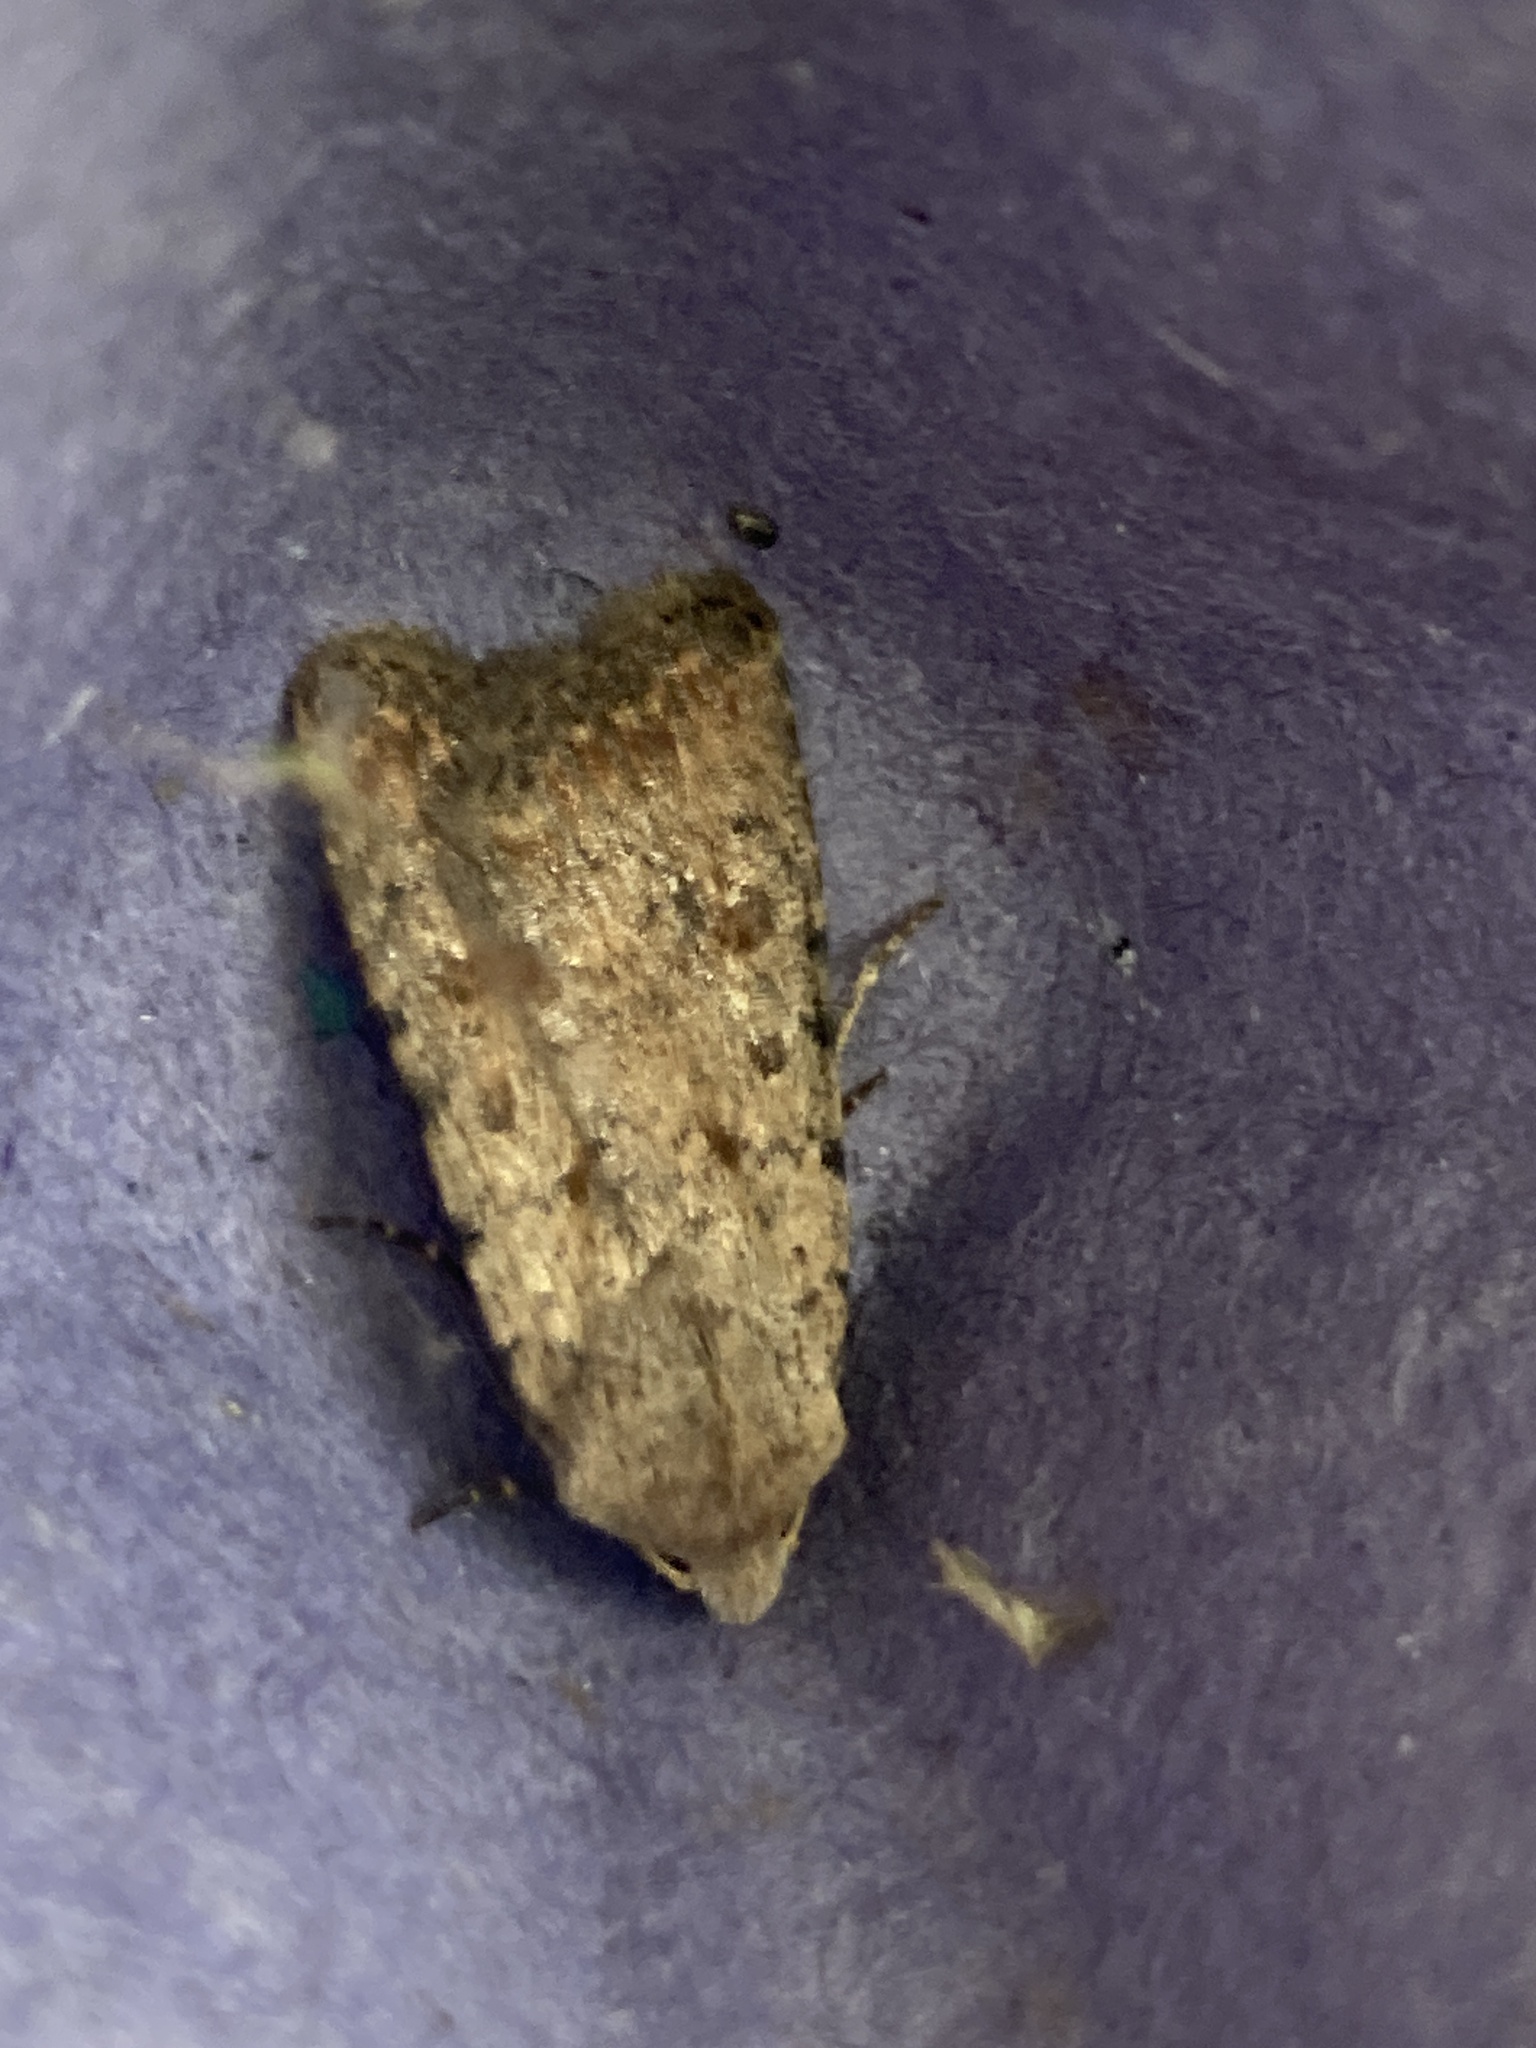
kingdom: Animalia
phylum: Arthropoda
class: Insecta
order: Lepidoptera
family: Noctuidae
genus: Caradrina
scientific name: Caradrina clavipalpis
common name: Pale mottled willow
